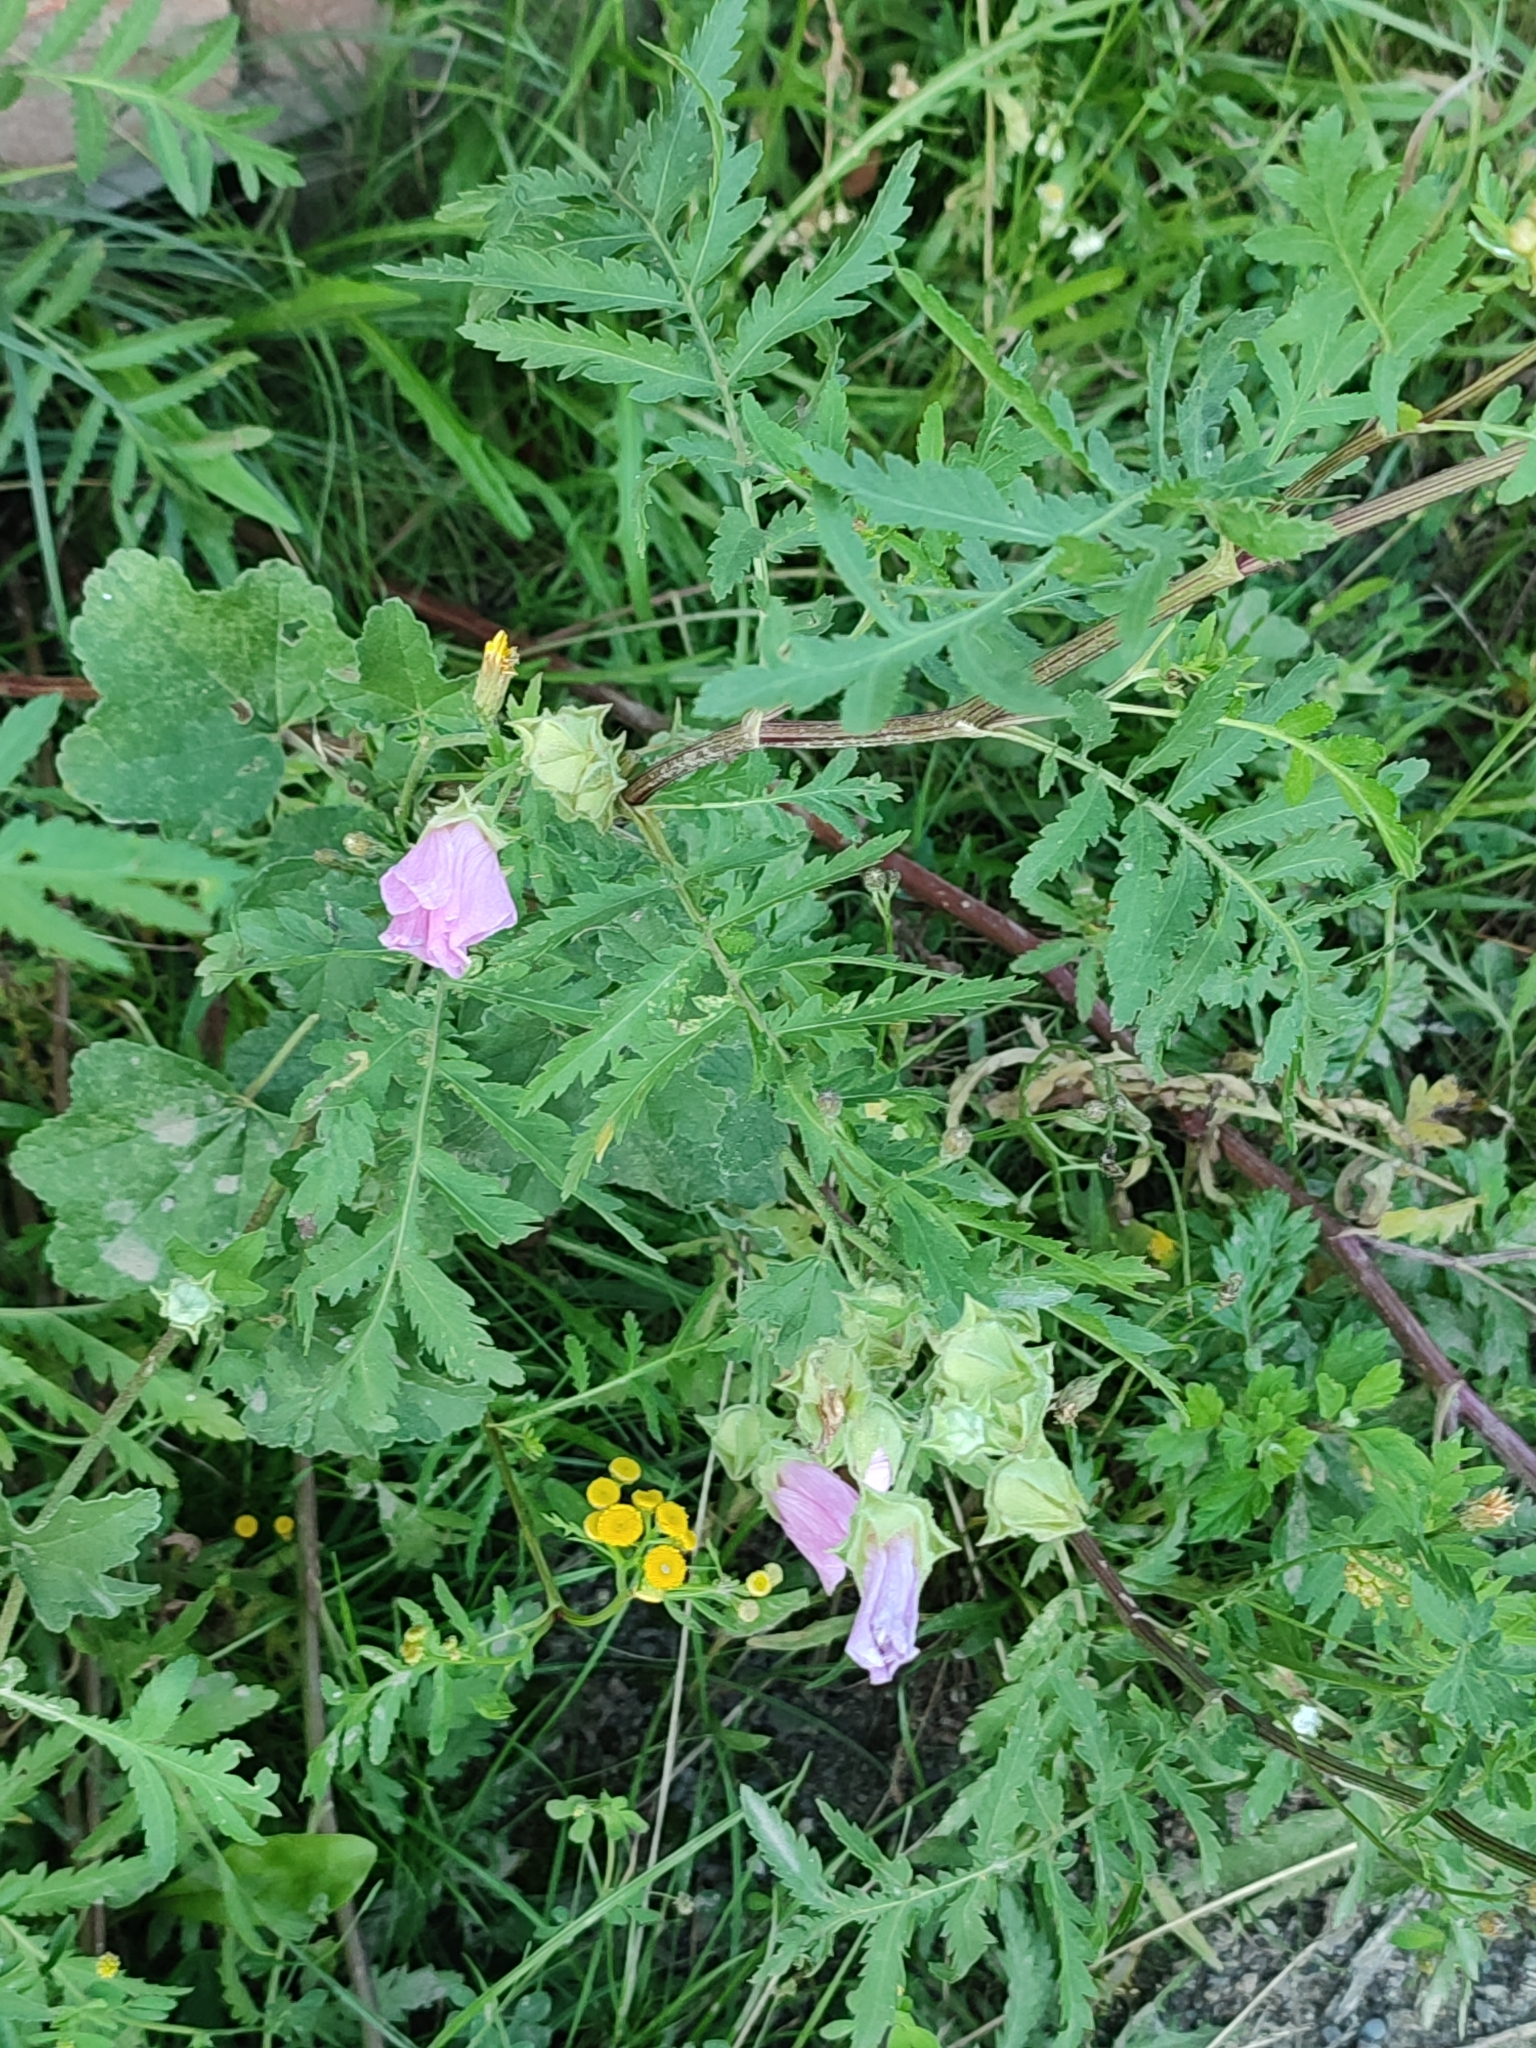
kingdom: Plantae
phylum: Tracheophyta
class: Magnoliopsida
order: Malvales
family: Malvaceae
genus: Malva
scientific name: Malva thuringiaca
